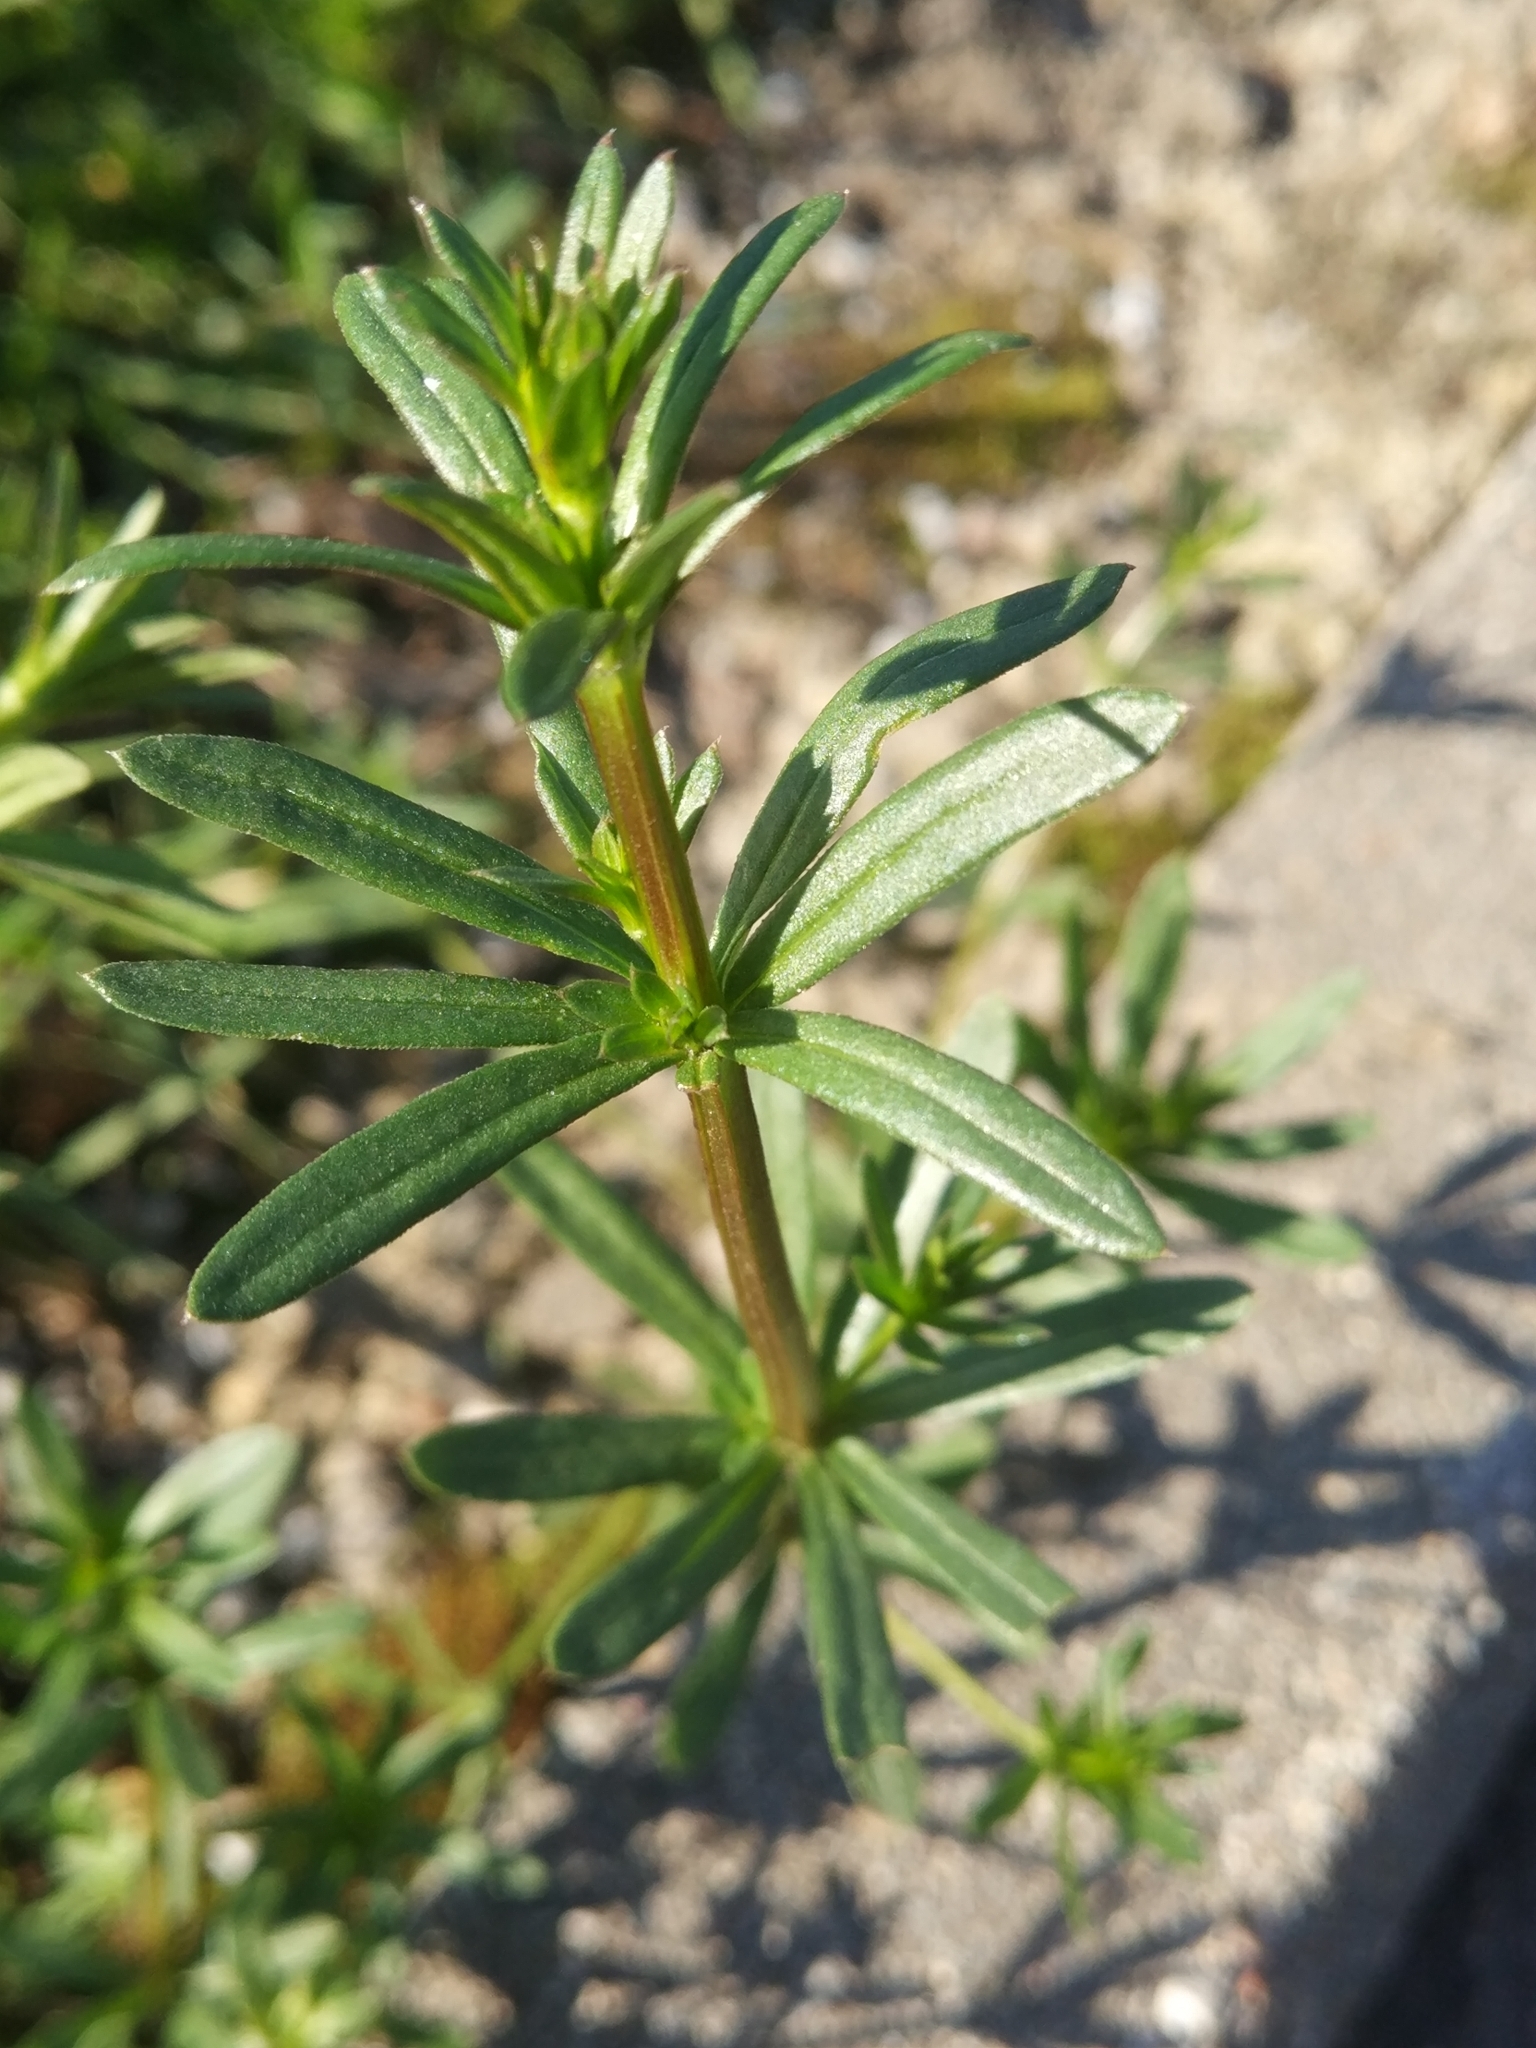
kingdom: Plantae
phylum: Tracheophyta
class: Magnoliopsida
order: Gentianales
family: Rubiaceae
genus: Galium
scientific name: Galium mollugo
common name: Hedge bedstraw
